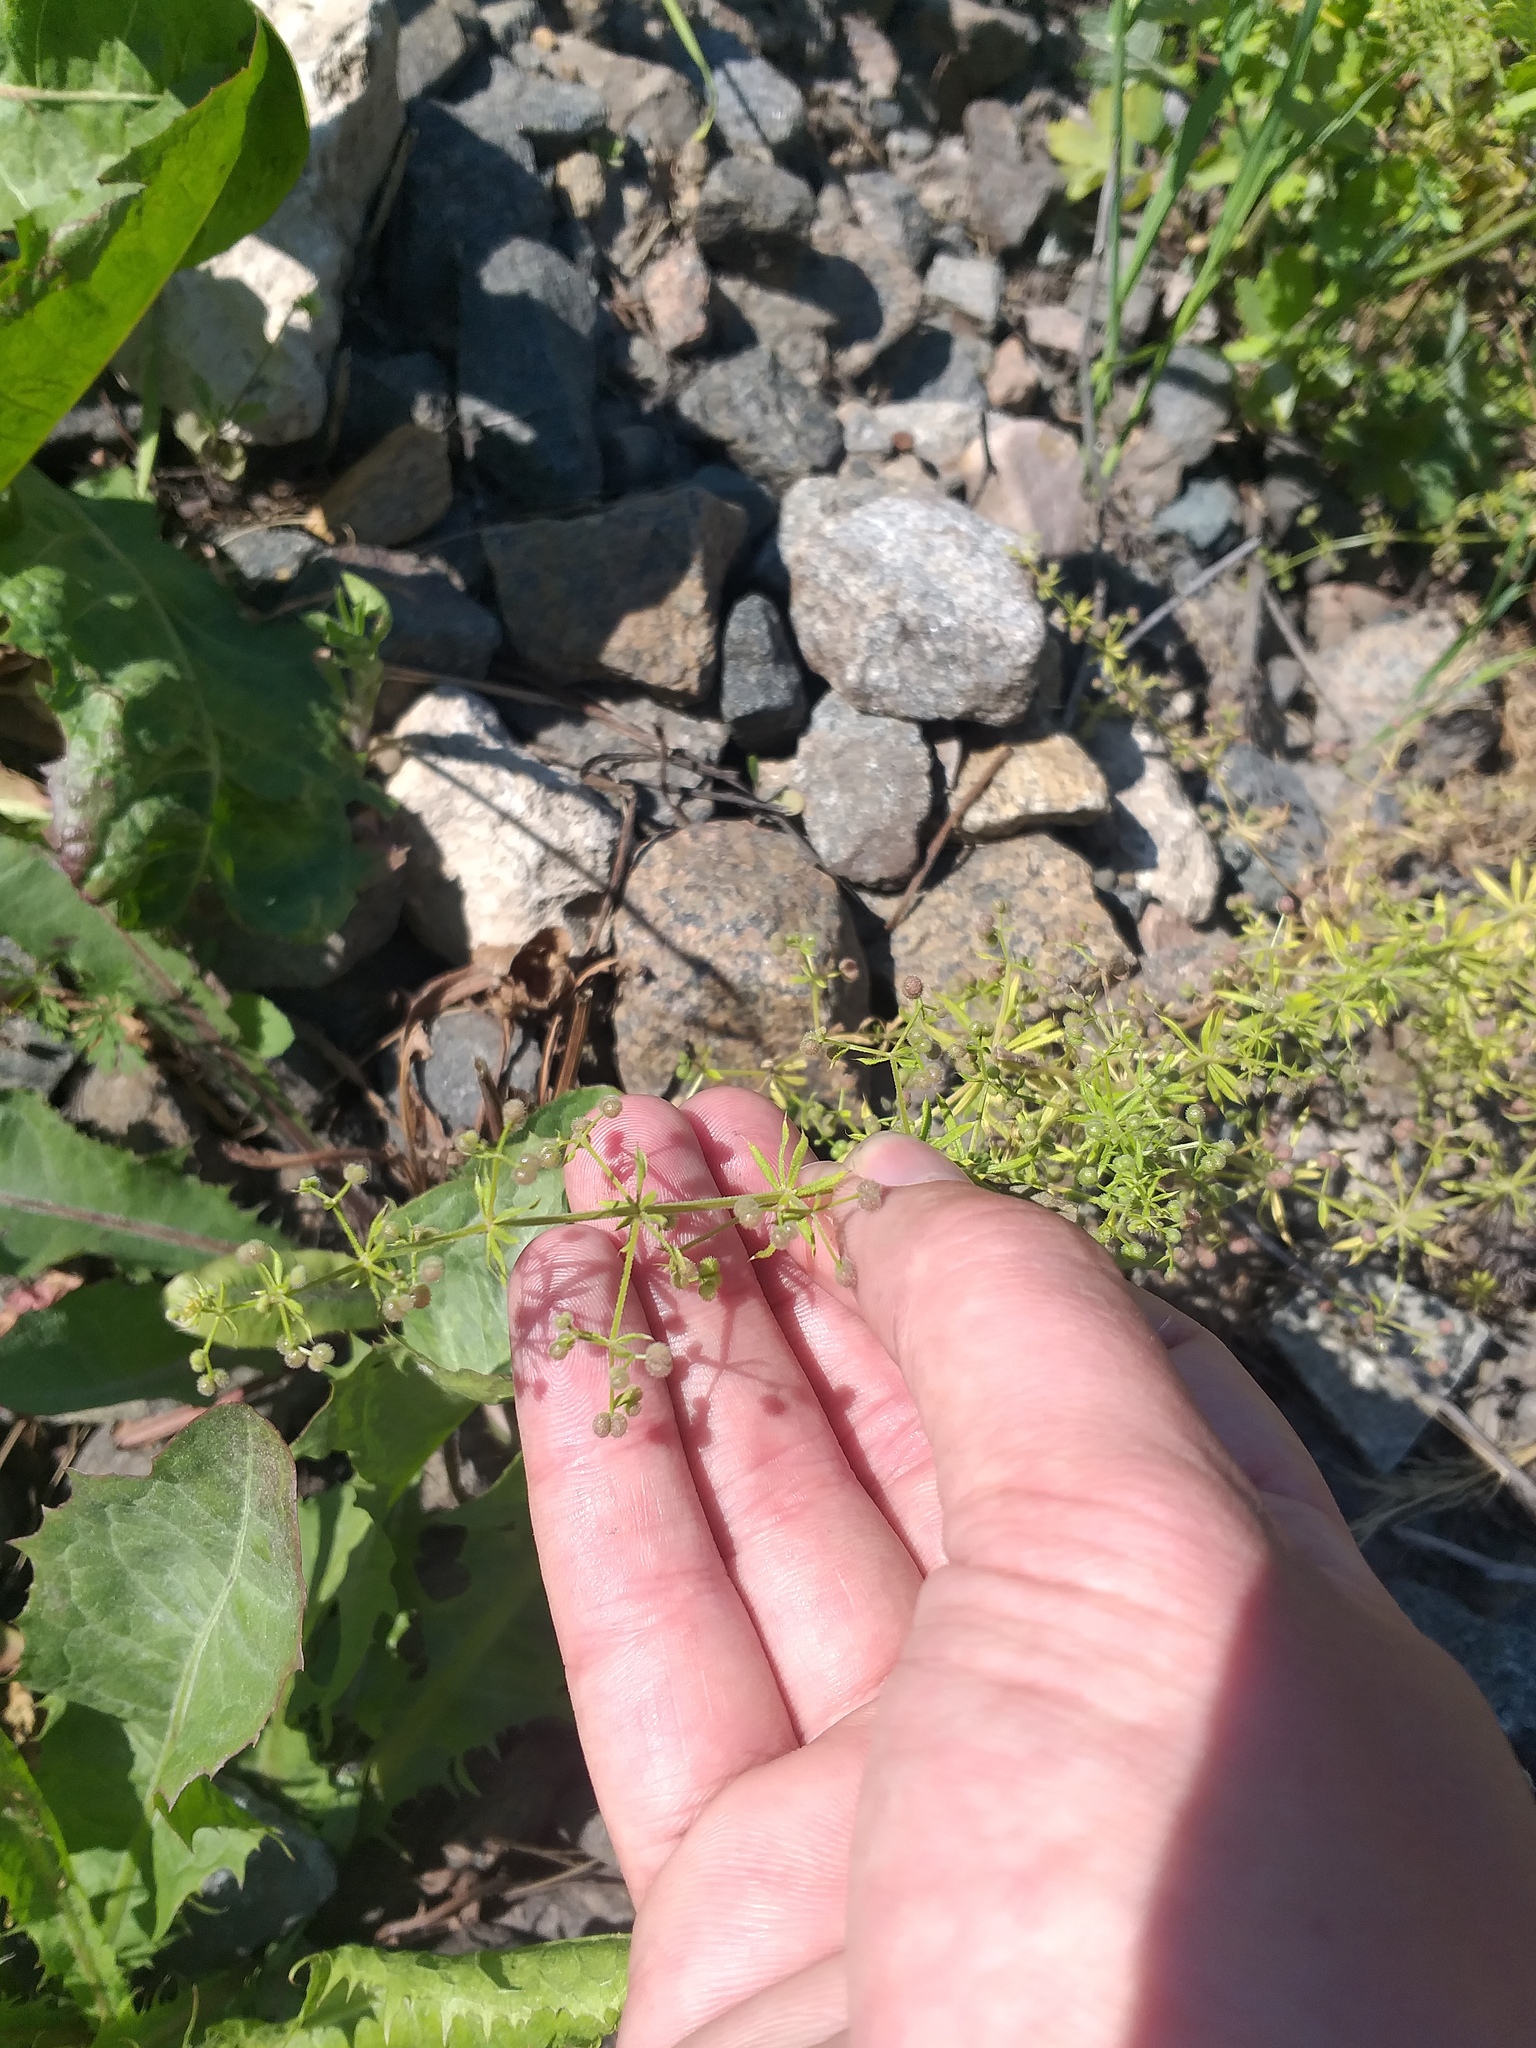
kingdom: Plantae
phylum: Tracheophyta
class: Magnoliopsida
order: Gentianales
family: Rubiaceae
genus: Galium
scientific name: Galium
